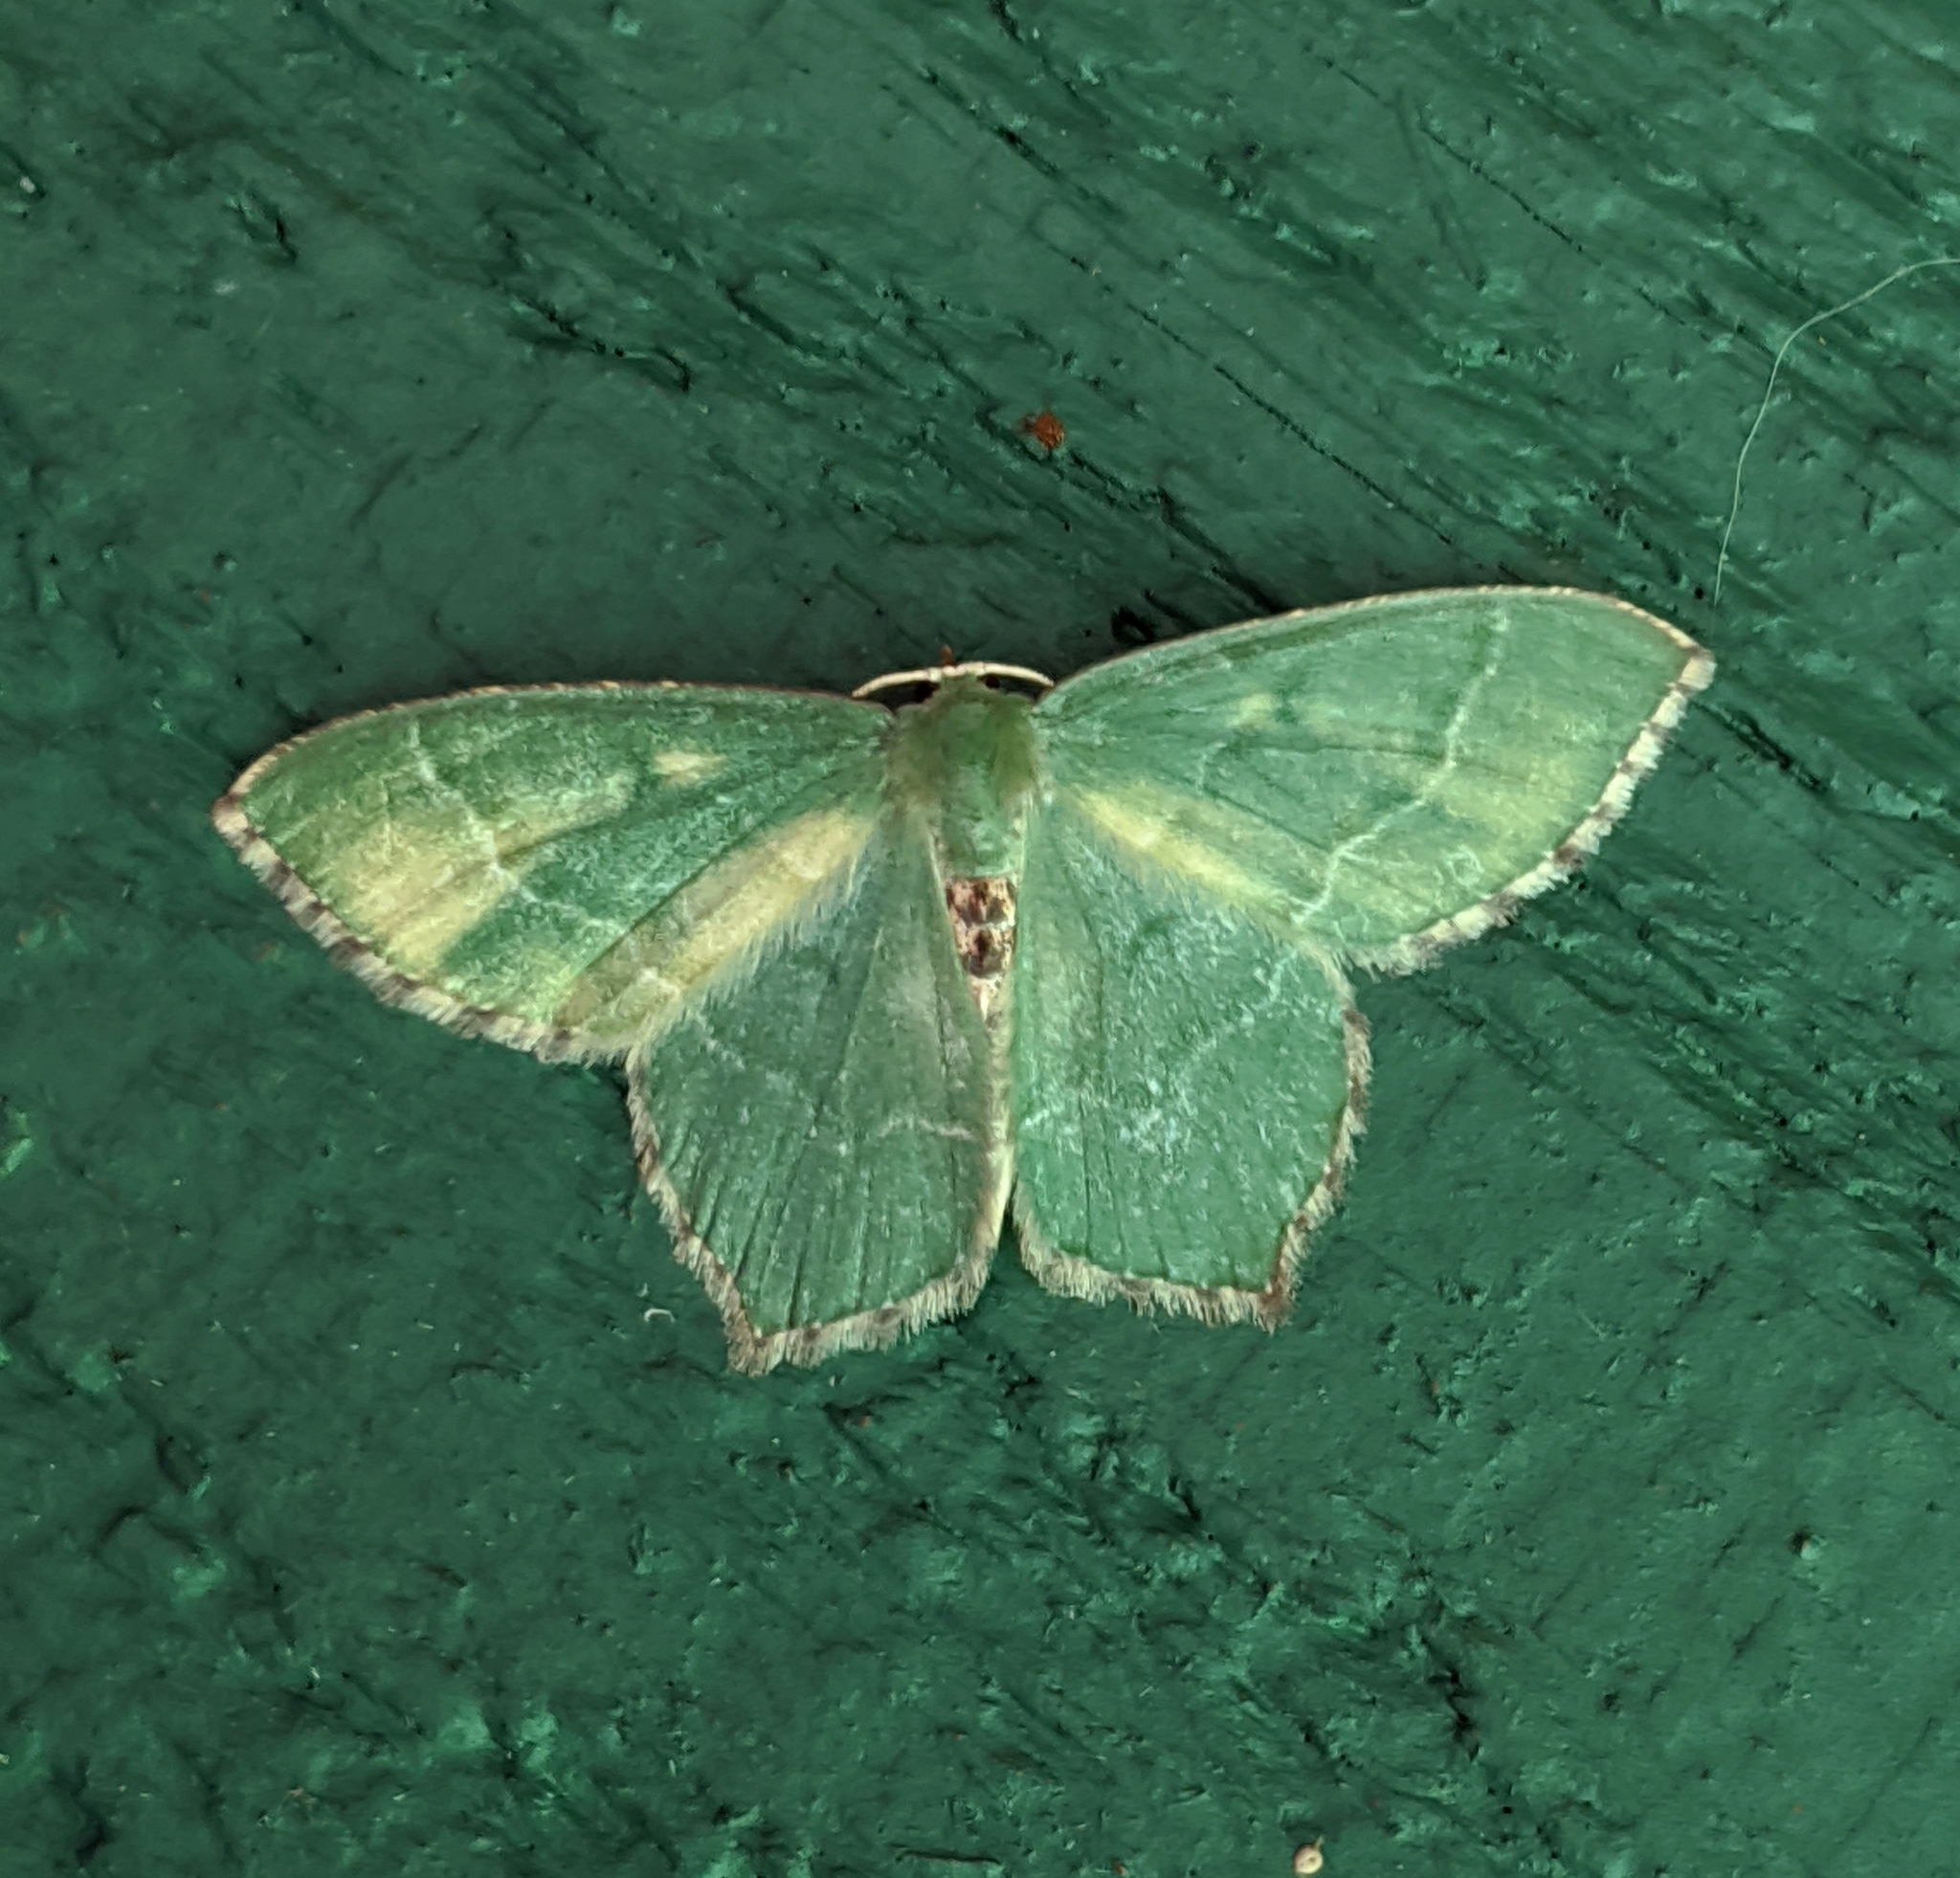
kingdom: Animalia
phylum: Arthropoda
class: Insecta
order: Lepidoptera
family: Geometridae
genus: Hemithea
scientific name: Hemithea aestivaria
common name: Common emerald
